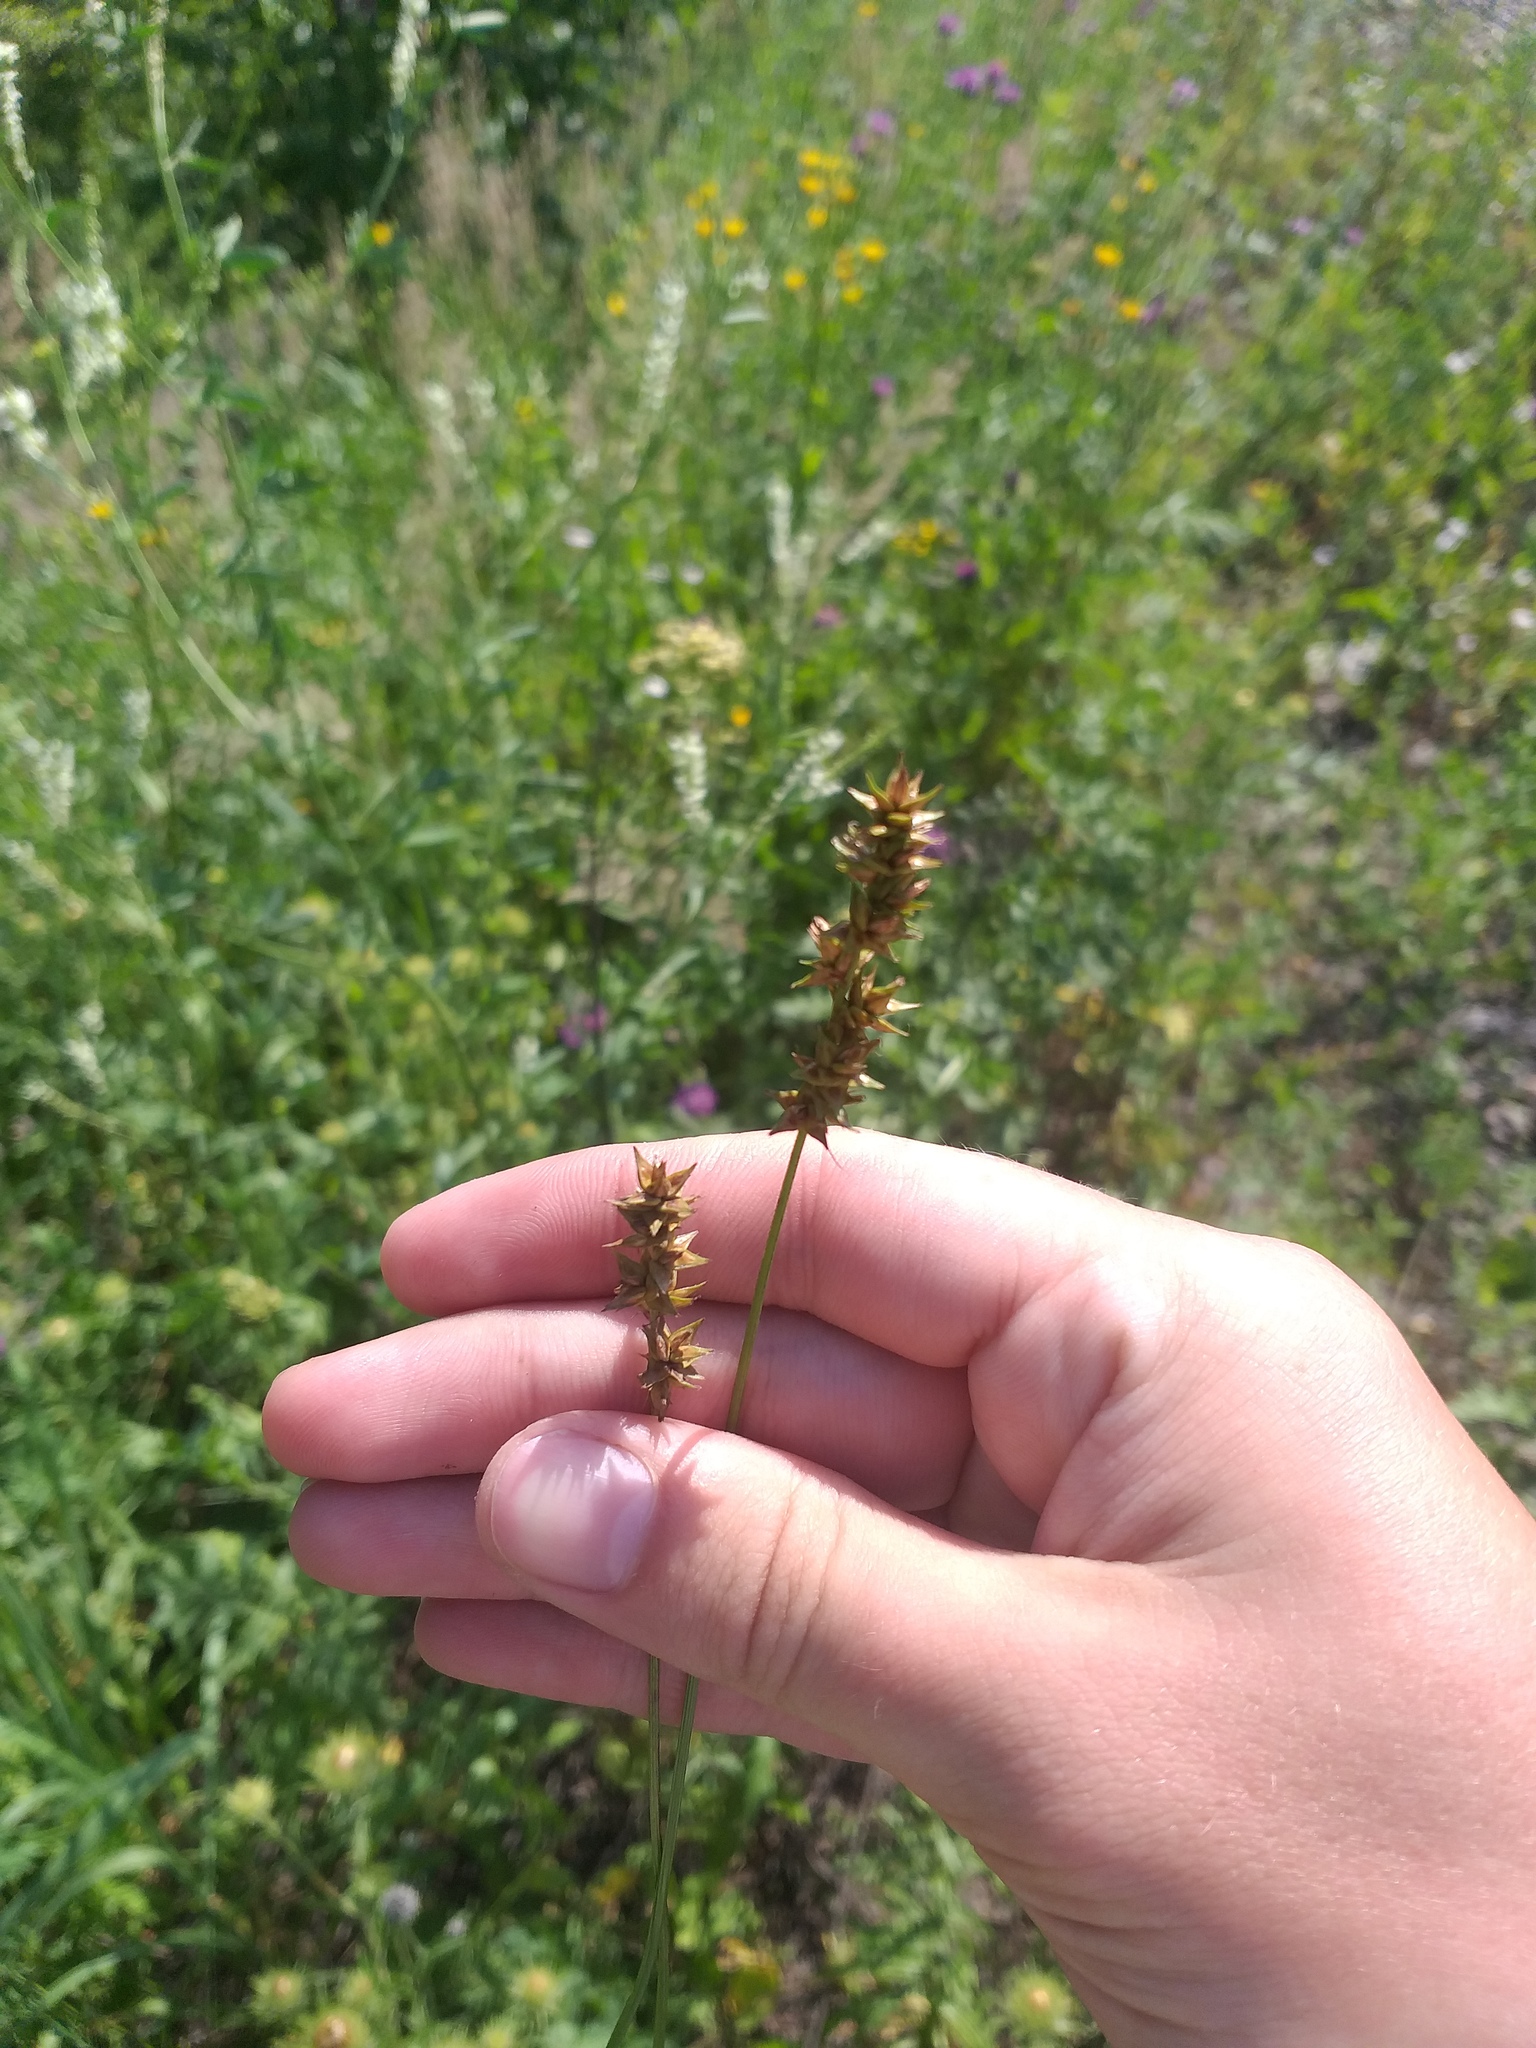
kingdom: Plantae
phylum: Tracheophyta
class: Liliopsida
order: Poales
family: Cyperaceae
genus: Carex
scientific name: Carex spicata
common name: Spiked sedge
